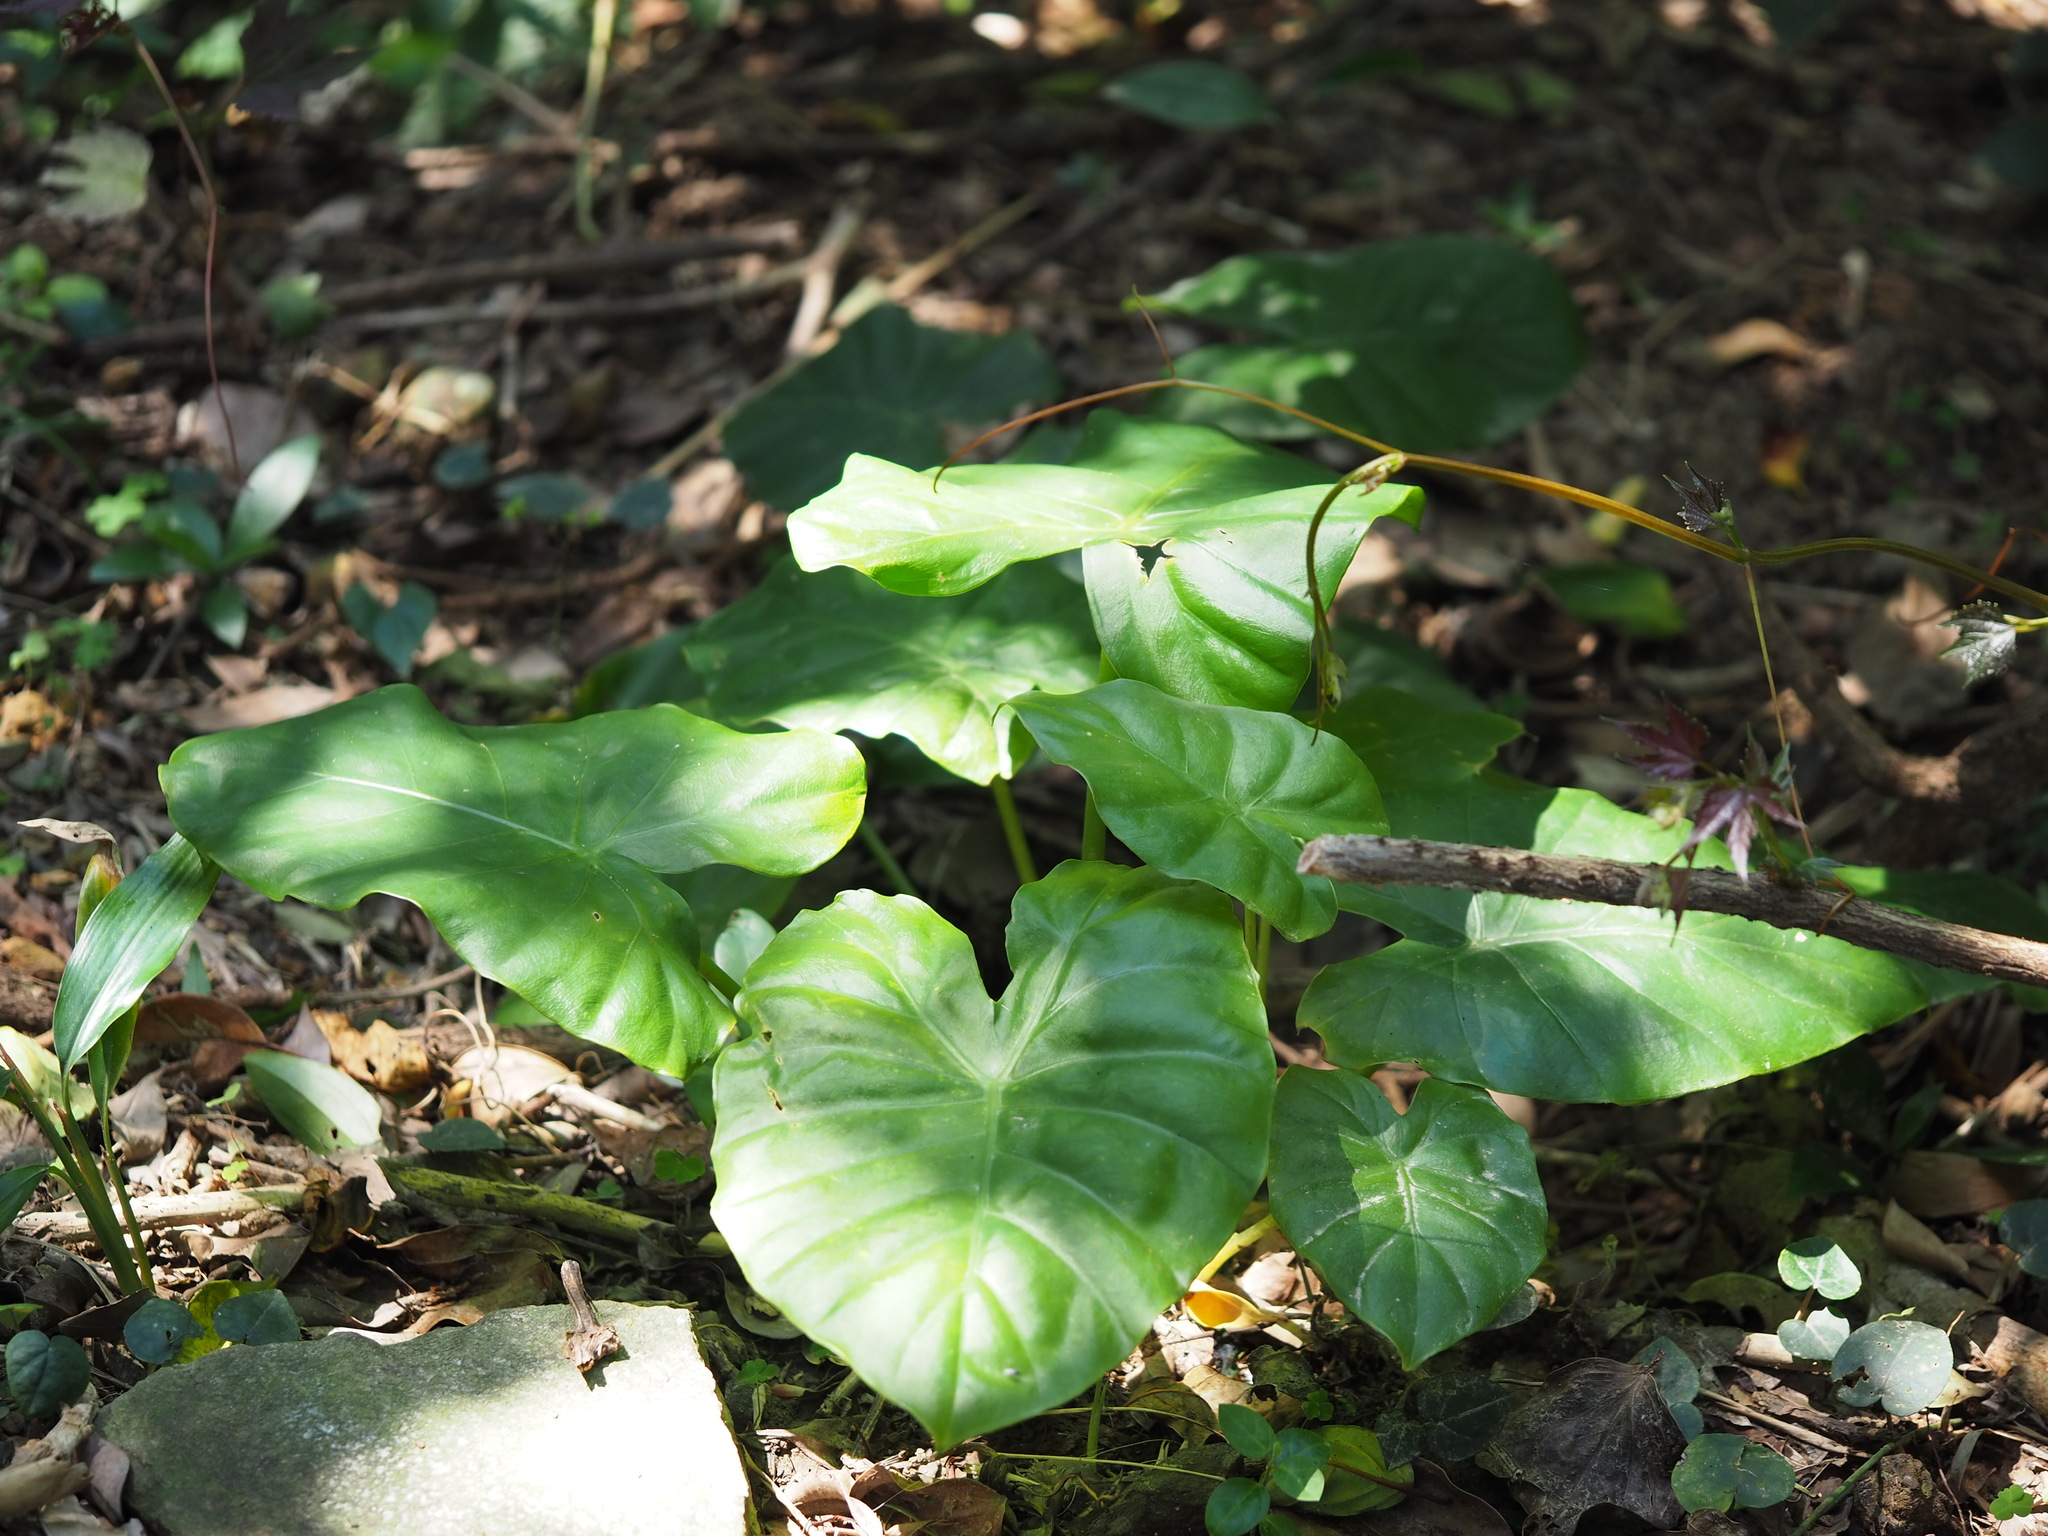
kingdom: Plantae
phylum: Tracheophyta
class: Liliopsida
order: Alismatales
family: Araceae
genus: Alocasia
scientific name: Alocasia odora
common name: Asian taro
